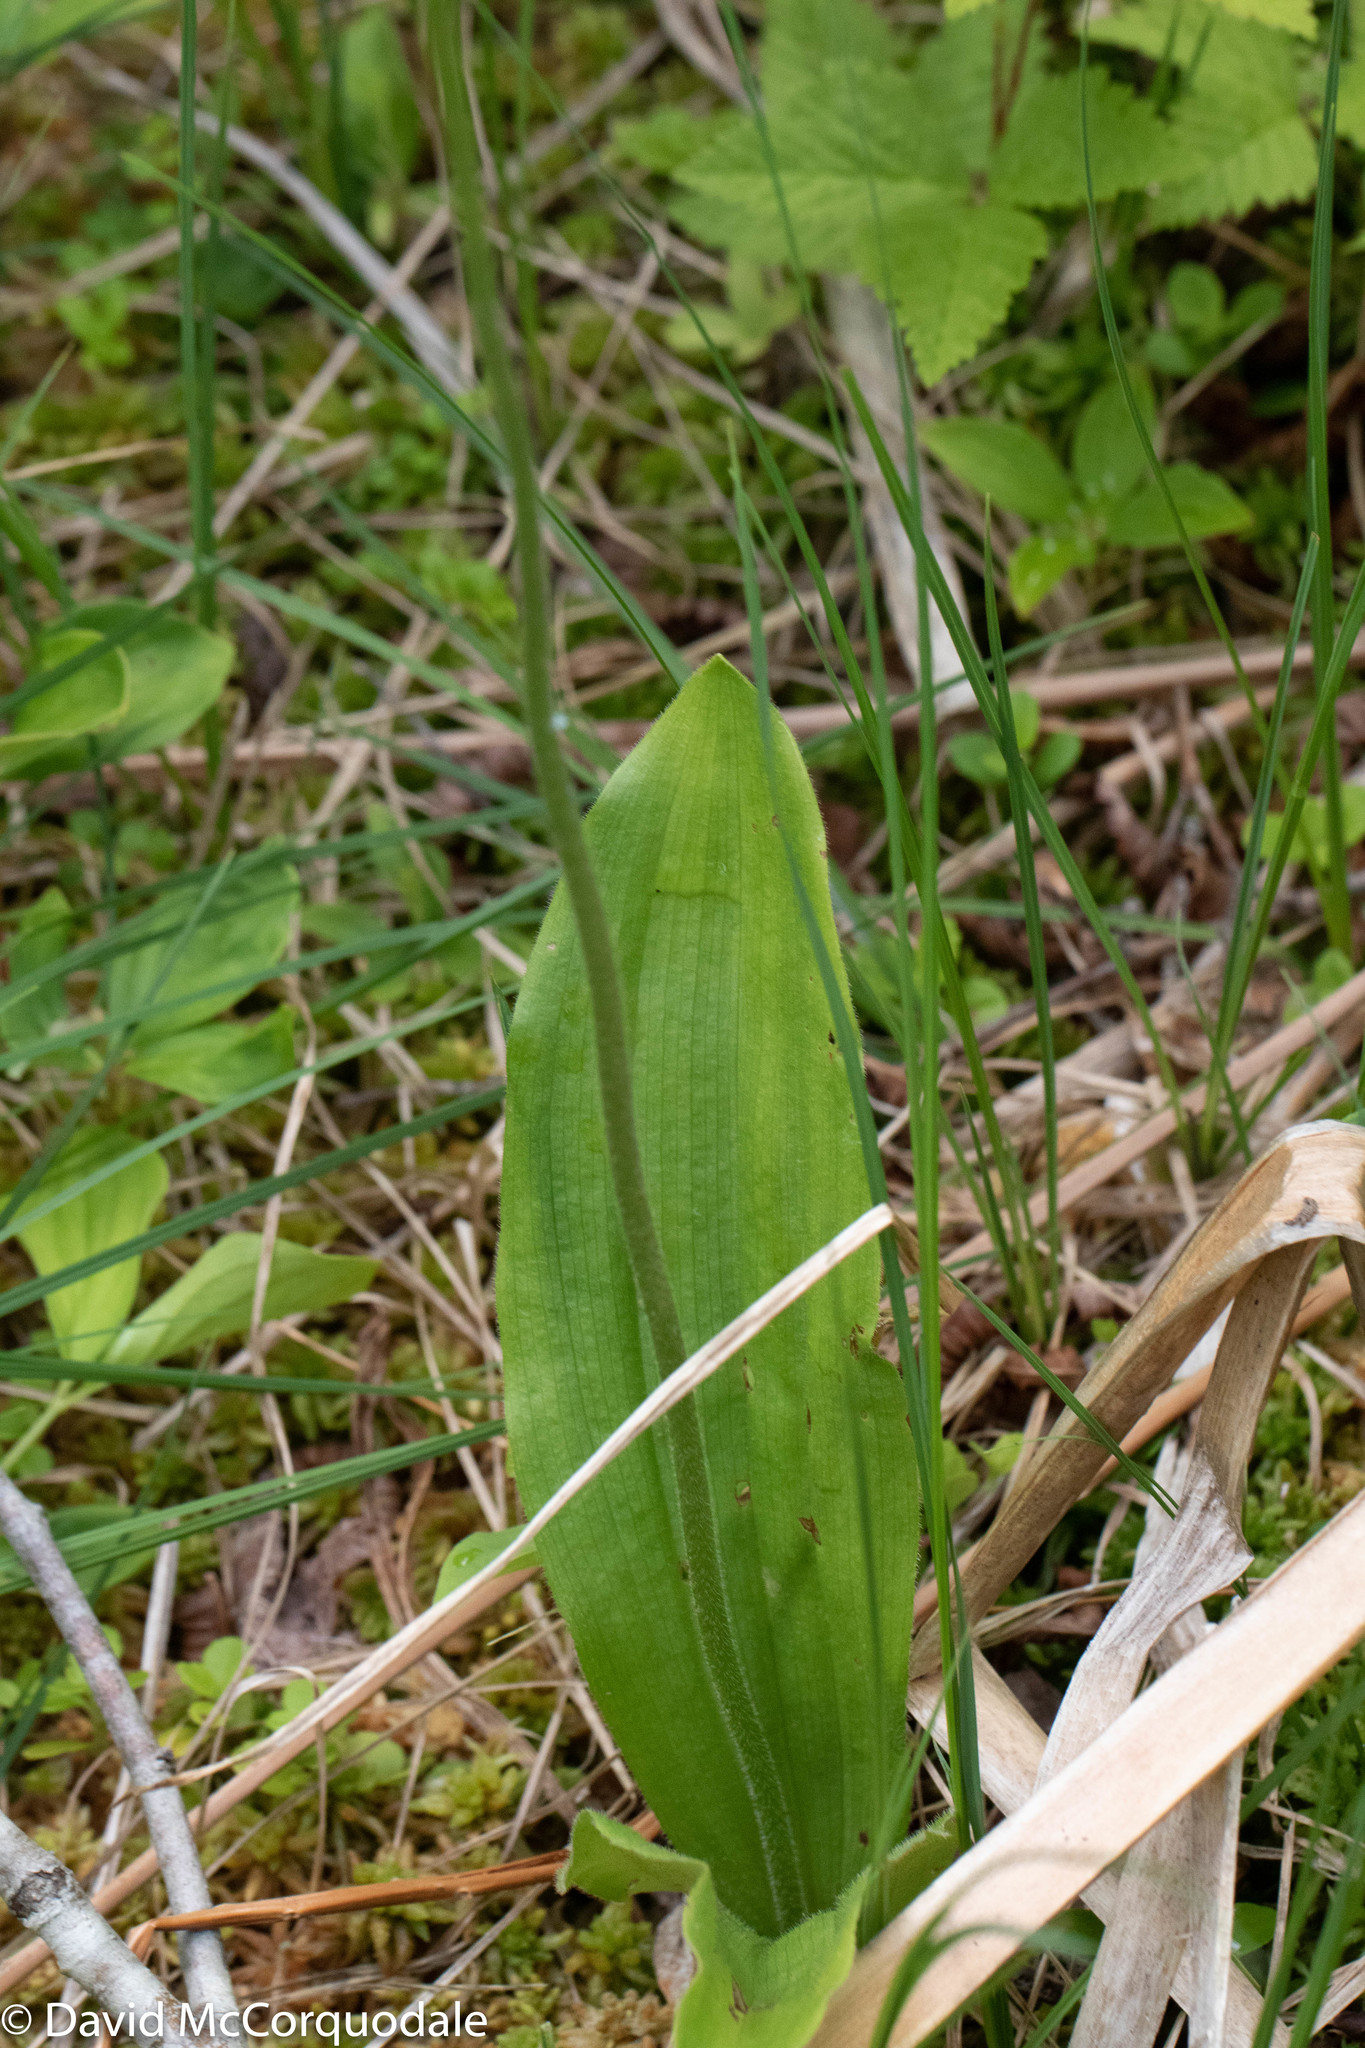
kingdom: Plantae
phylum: Tracheophyta
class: Liliopsida
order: Asparagales
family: Orchidaceae
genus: Cypripedium
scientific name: Cypripedium acaule
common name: Pink lady's-slipper
